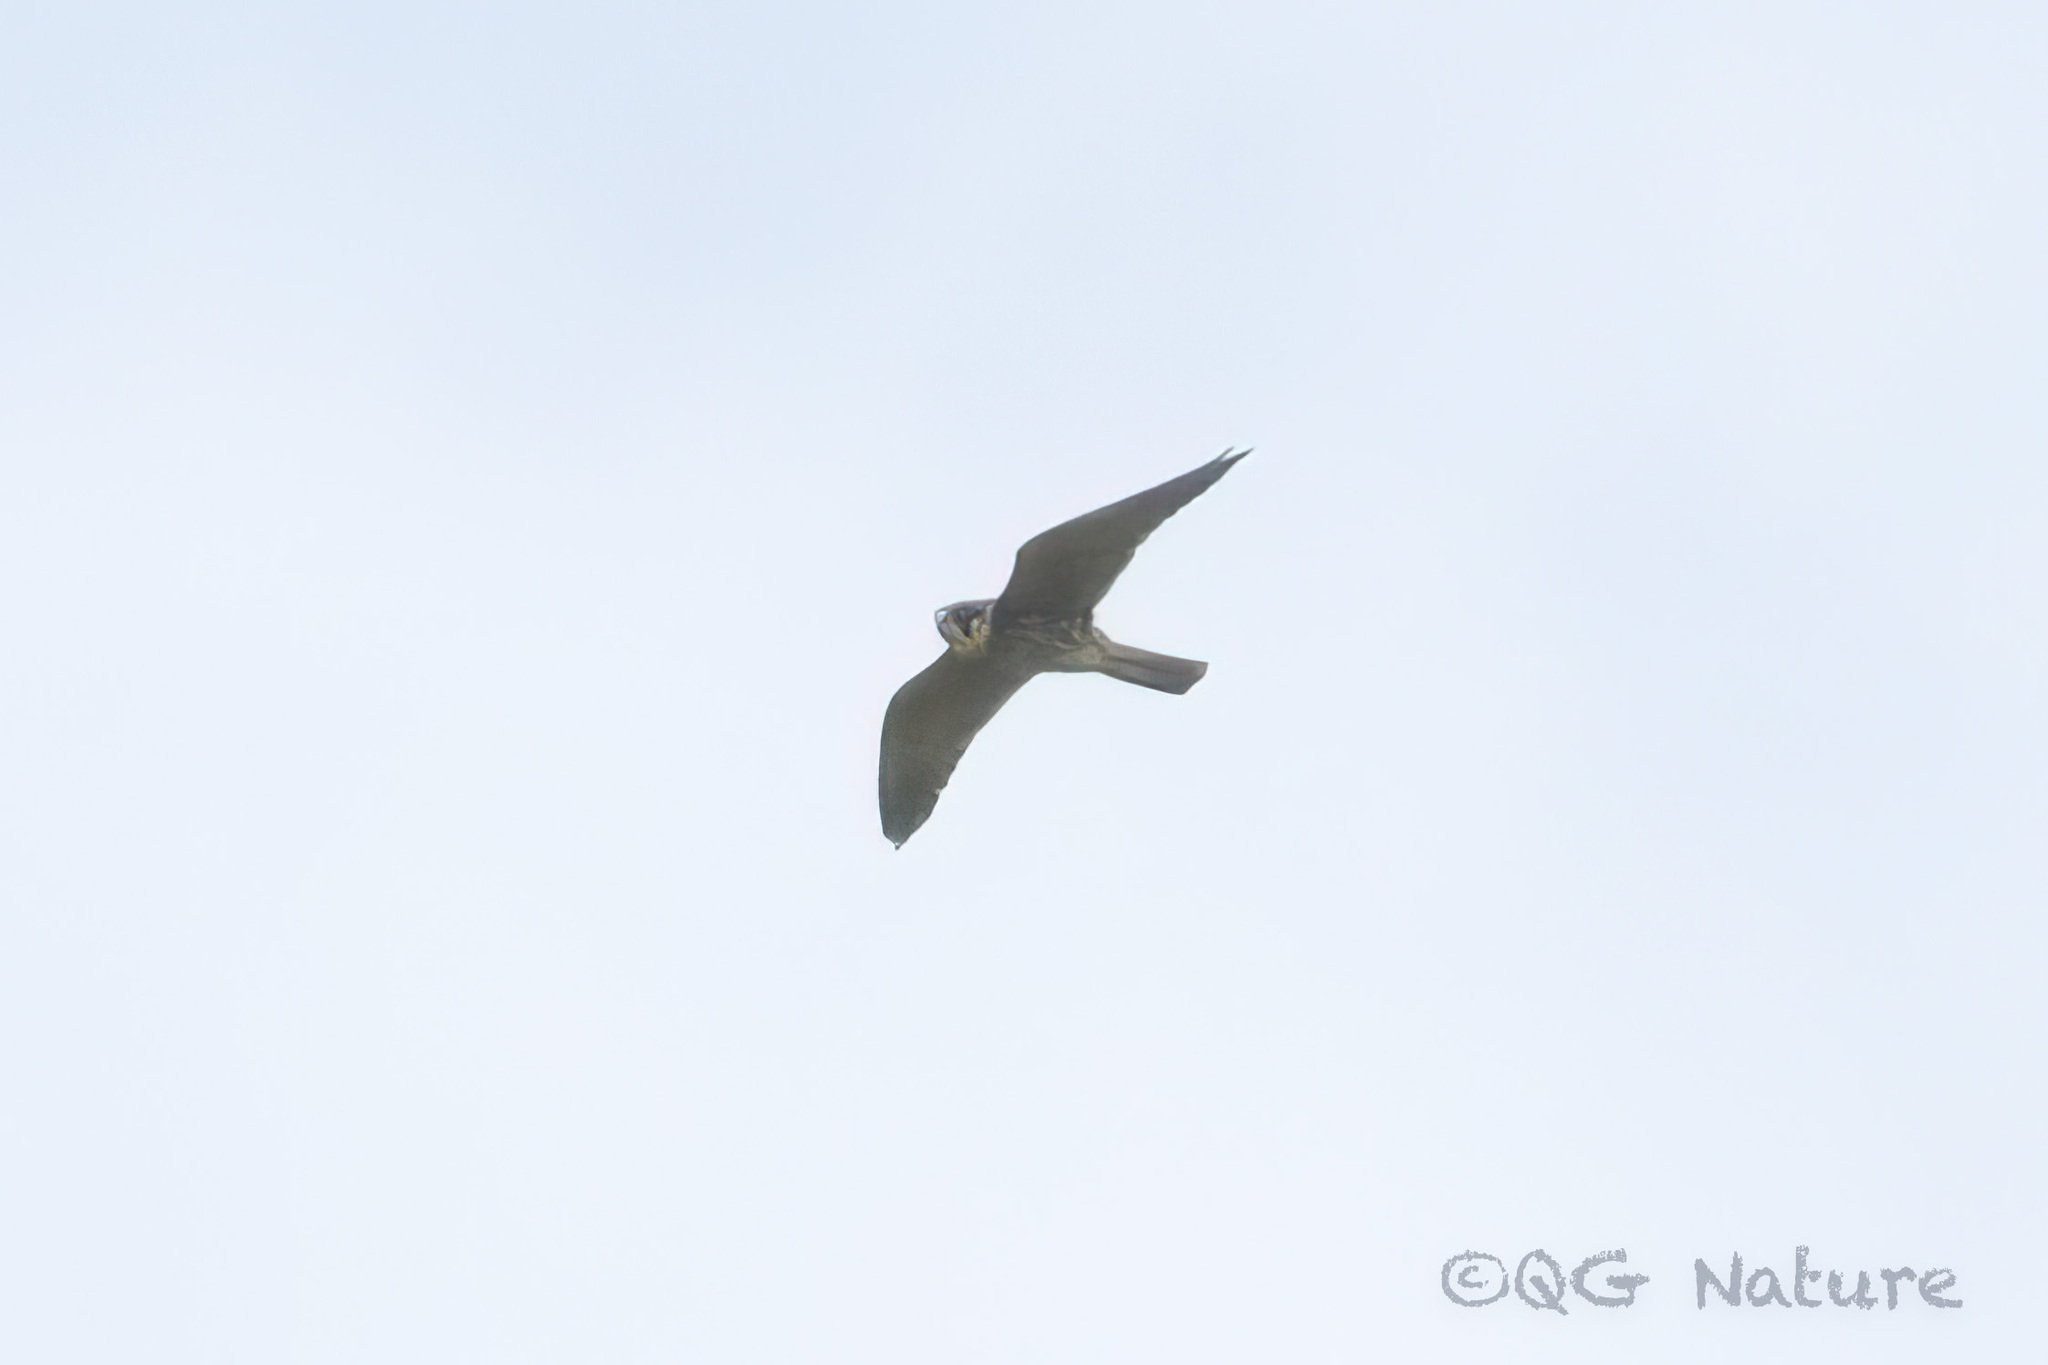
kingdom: Animalia
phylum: Chordata
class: Aves
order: Falconiformes
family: Falconidae
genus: Falco
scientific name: Falco subbuteo
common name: Eurasian hobby
